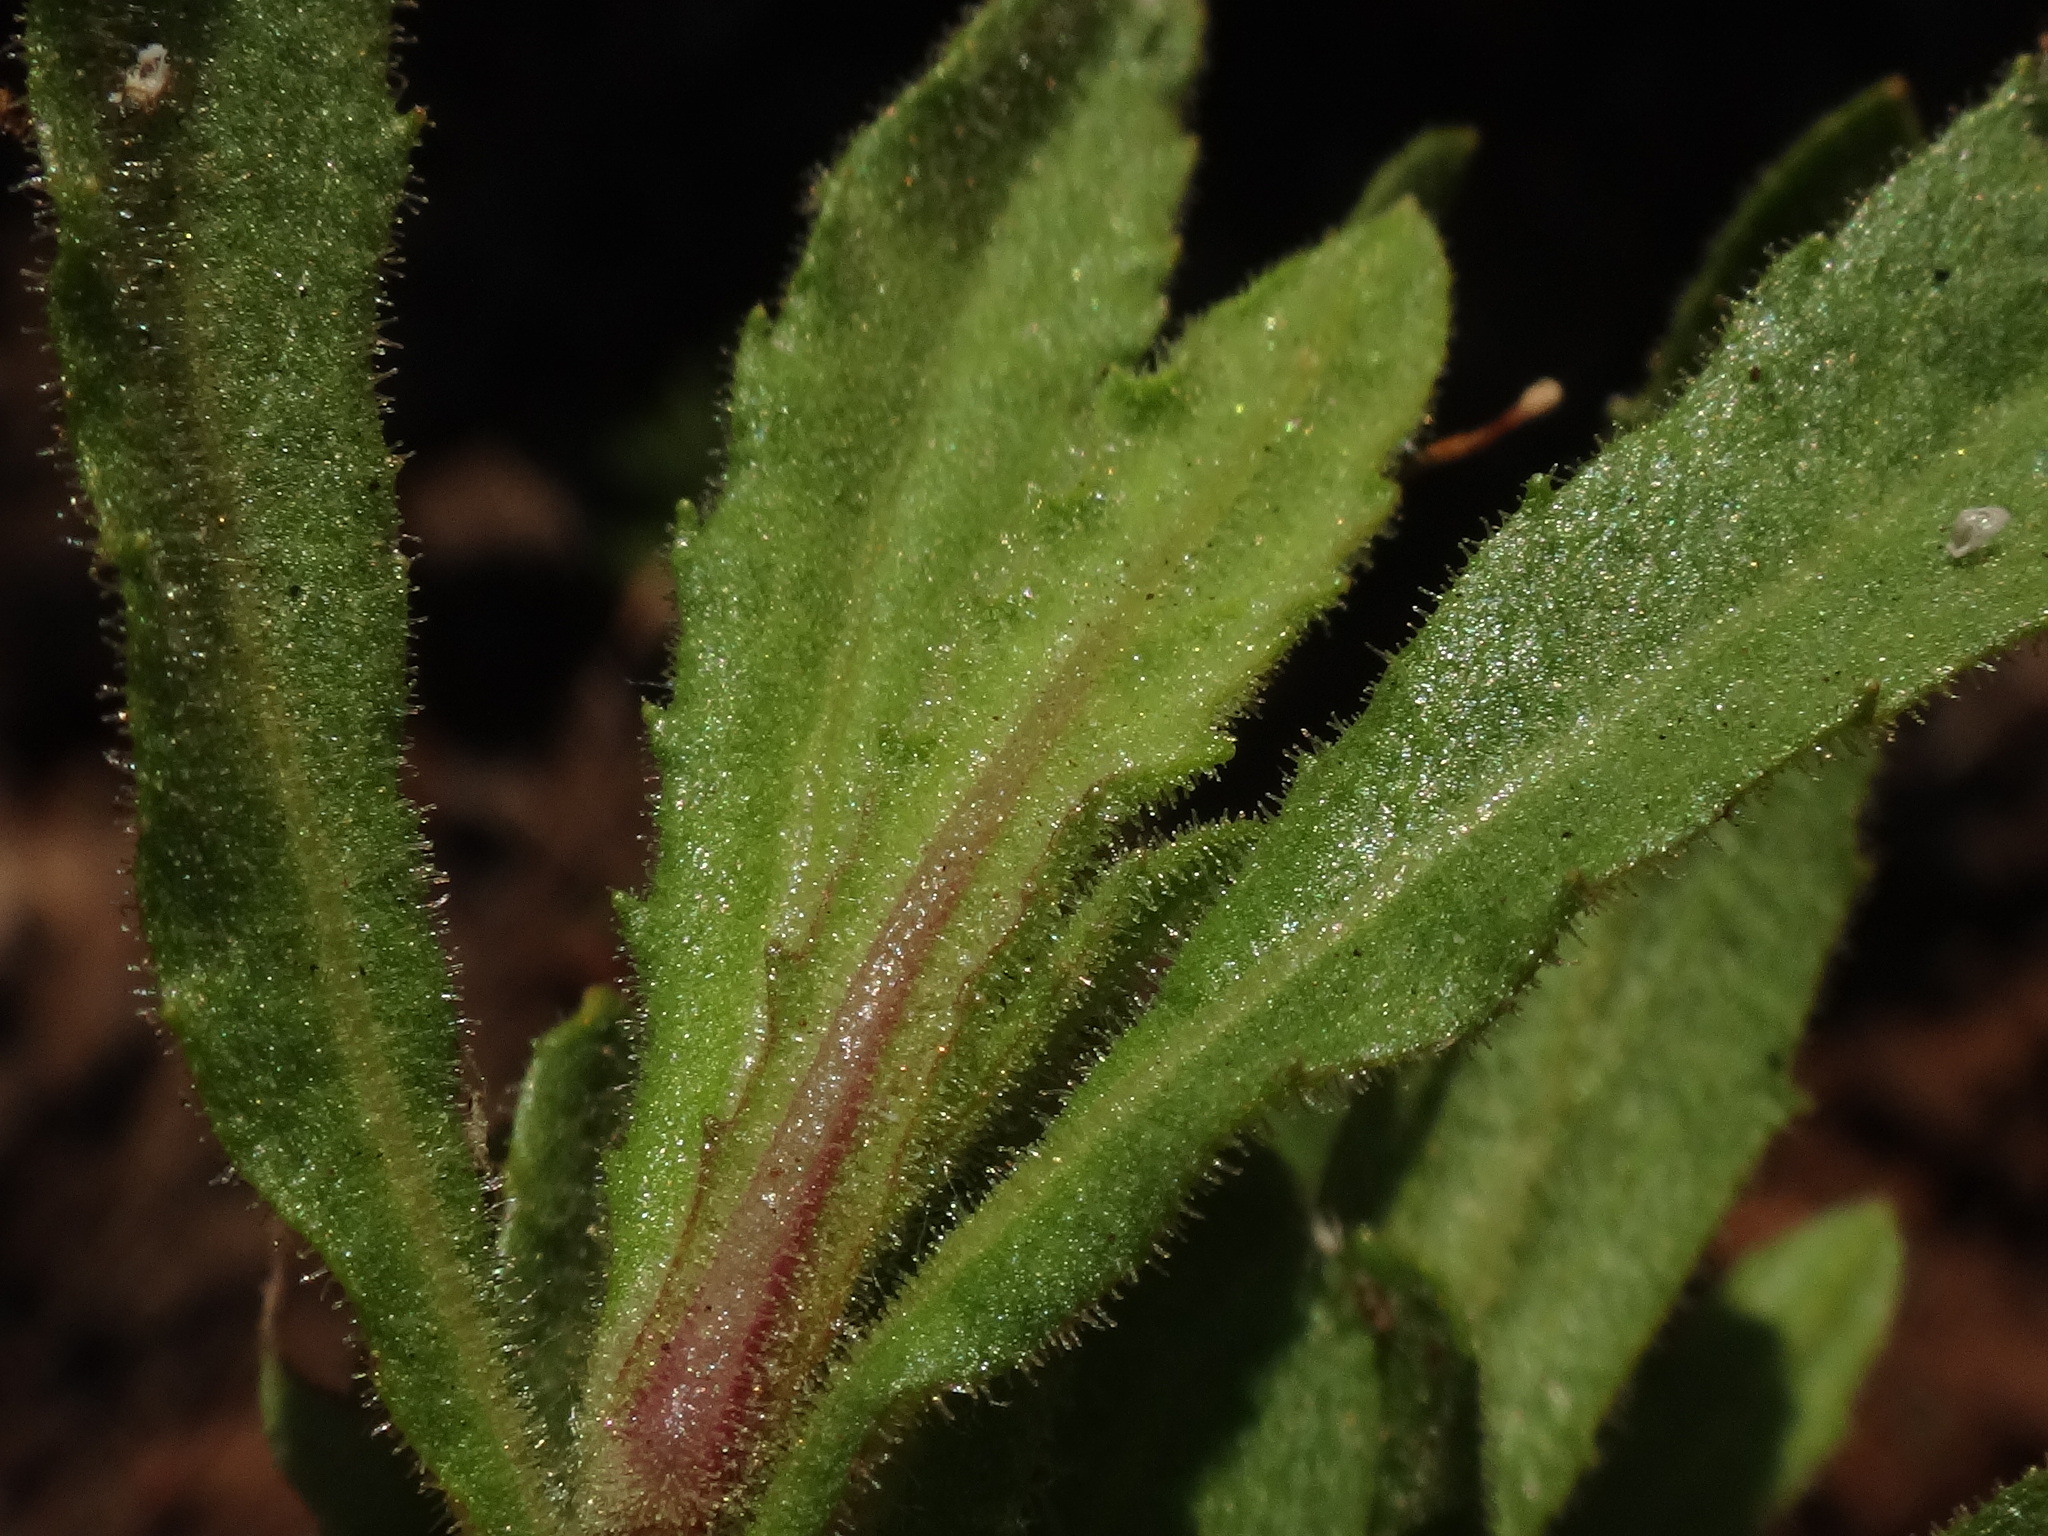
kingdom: Plantae
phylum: Tracheophyta
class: Magnoliopsida
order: Asterales
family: Asteraceae
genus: Dittrichia
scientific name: Dittrichia viscosa
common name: Woody fleabane
